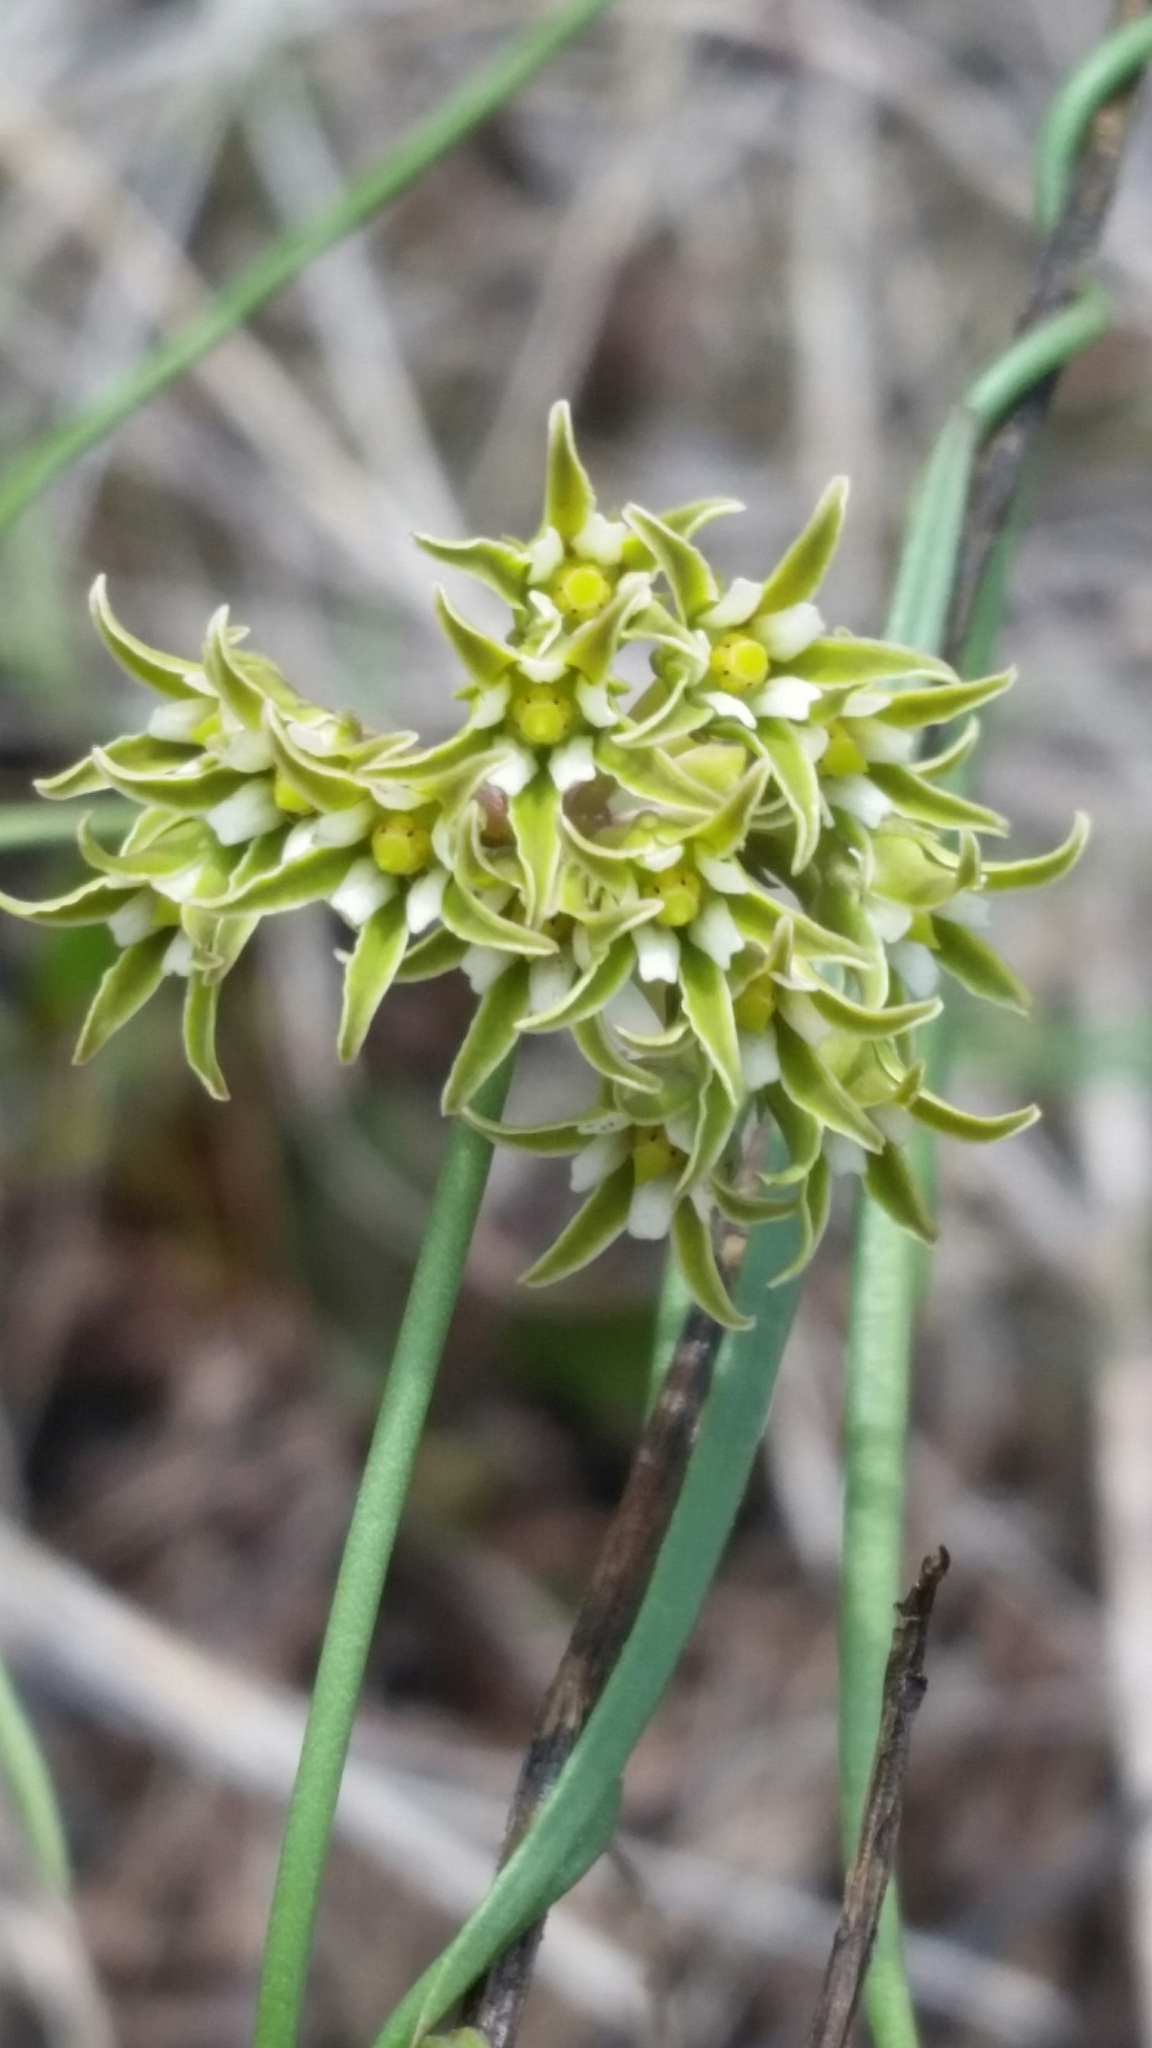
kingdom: Plantae
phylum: Tracheophyta
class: Magnoliopsida
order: Gentianales
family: Apocynaceae
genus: Pattalias
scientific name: Pattalias
